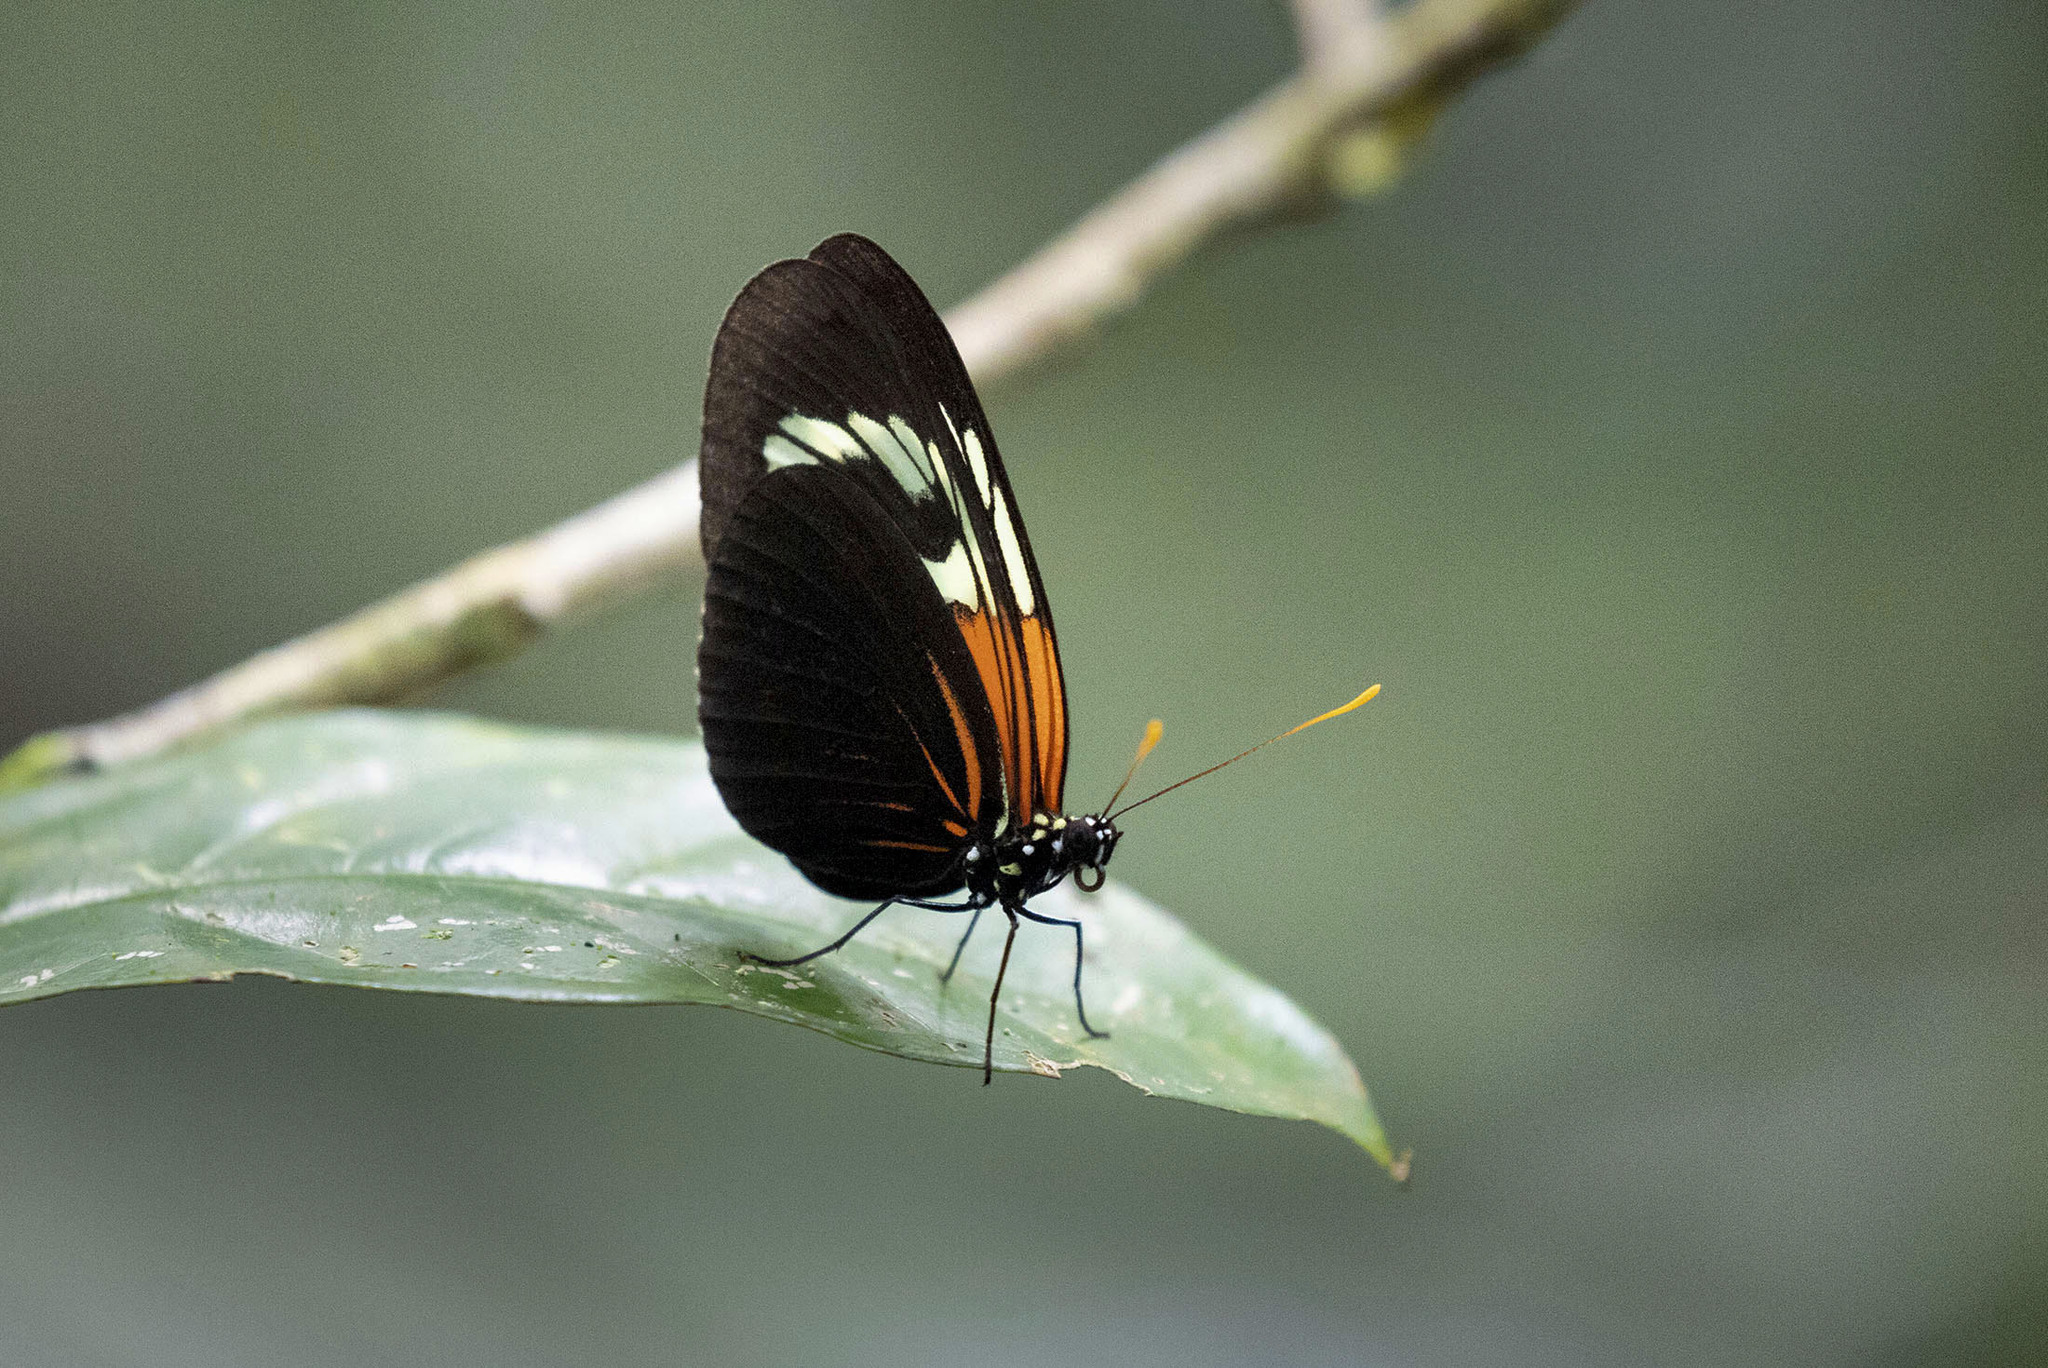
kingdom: Animalia
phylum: Arthropoda
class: Insecta
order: Lepidoptera
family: Nymphalidae
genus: Heliconius
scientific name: Heliconius aoede
